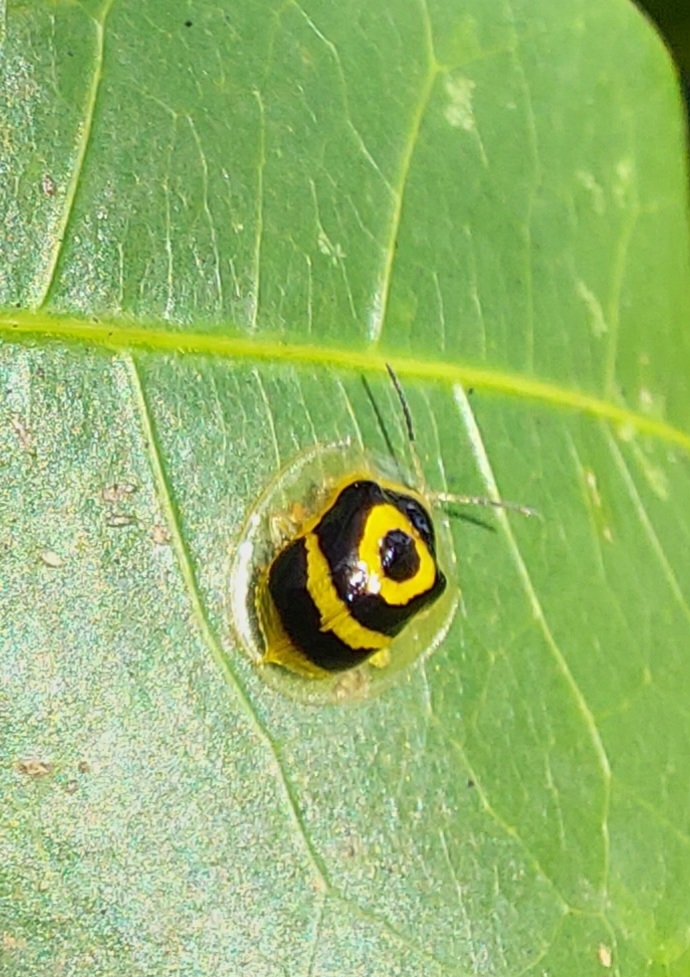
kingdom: Animalia
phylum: Arthropoda
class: Insecta
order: Coleoptera
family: Chrysomelidae
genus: Ischnocodia
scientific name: Ischnocodia annulus
